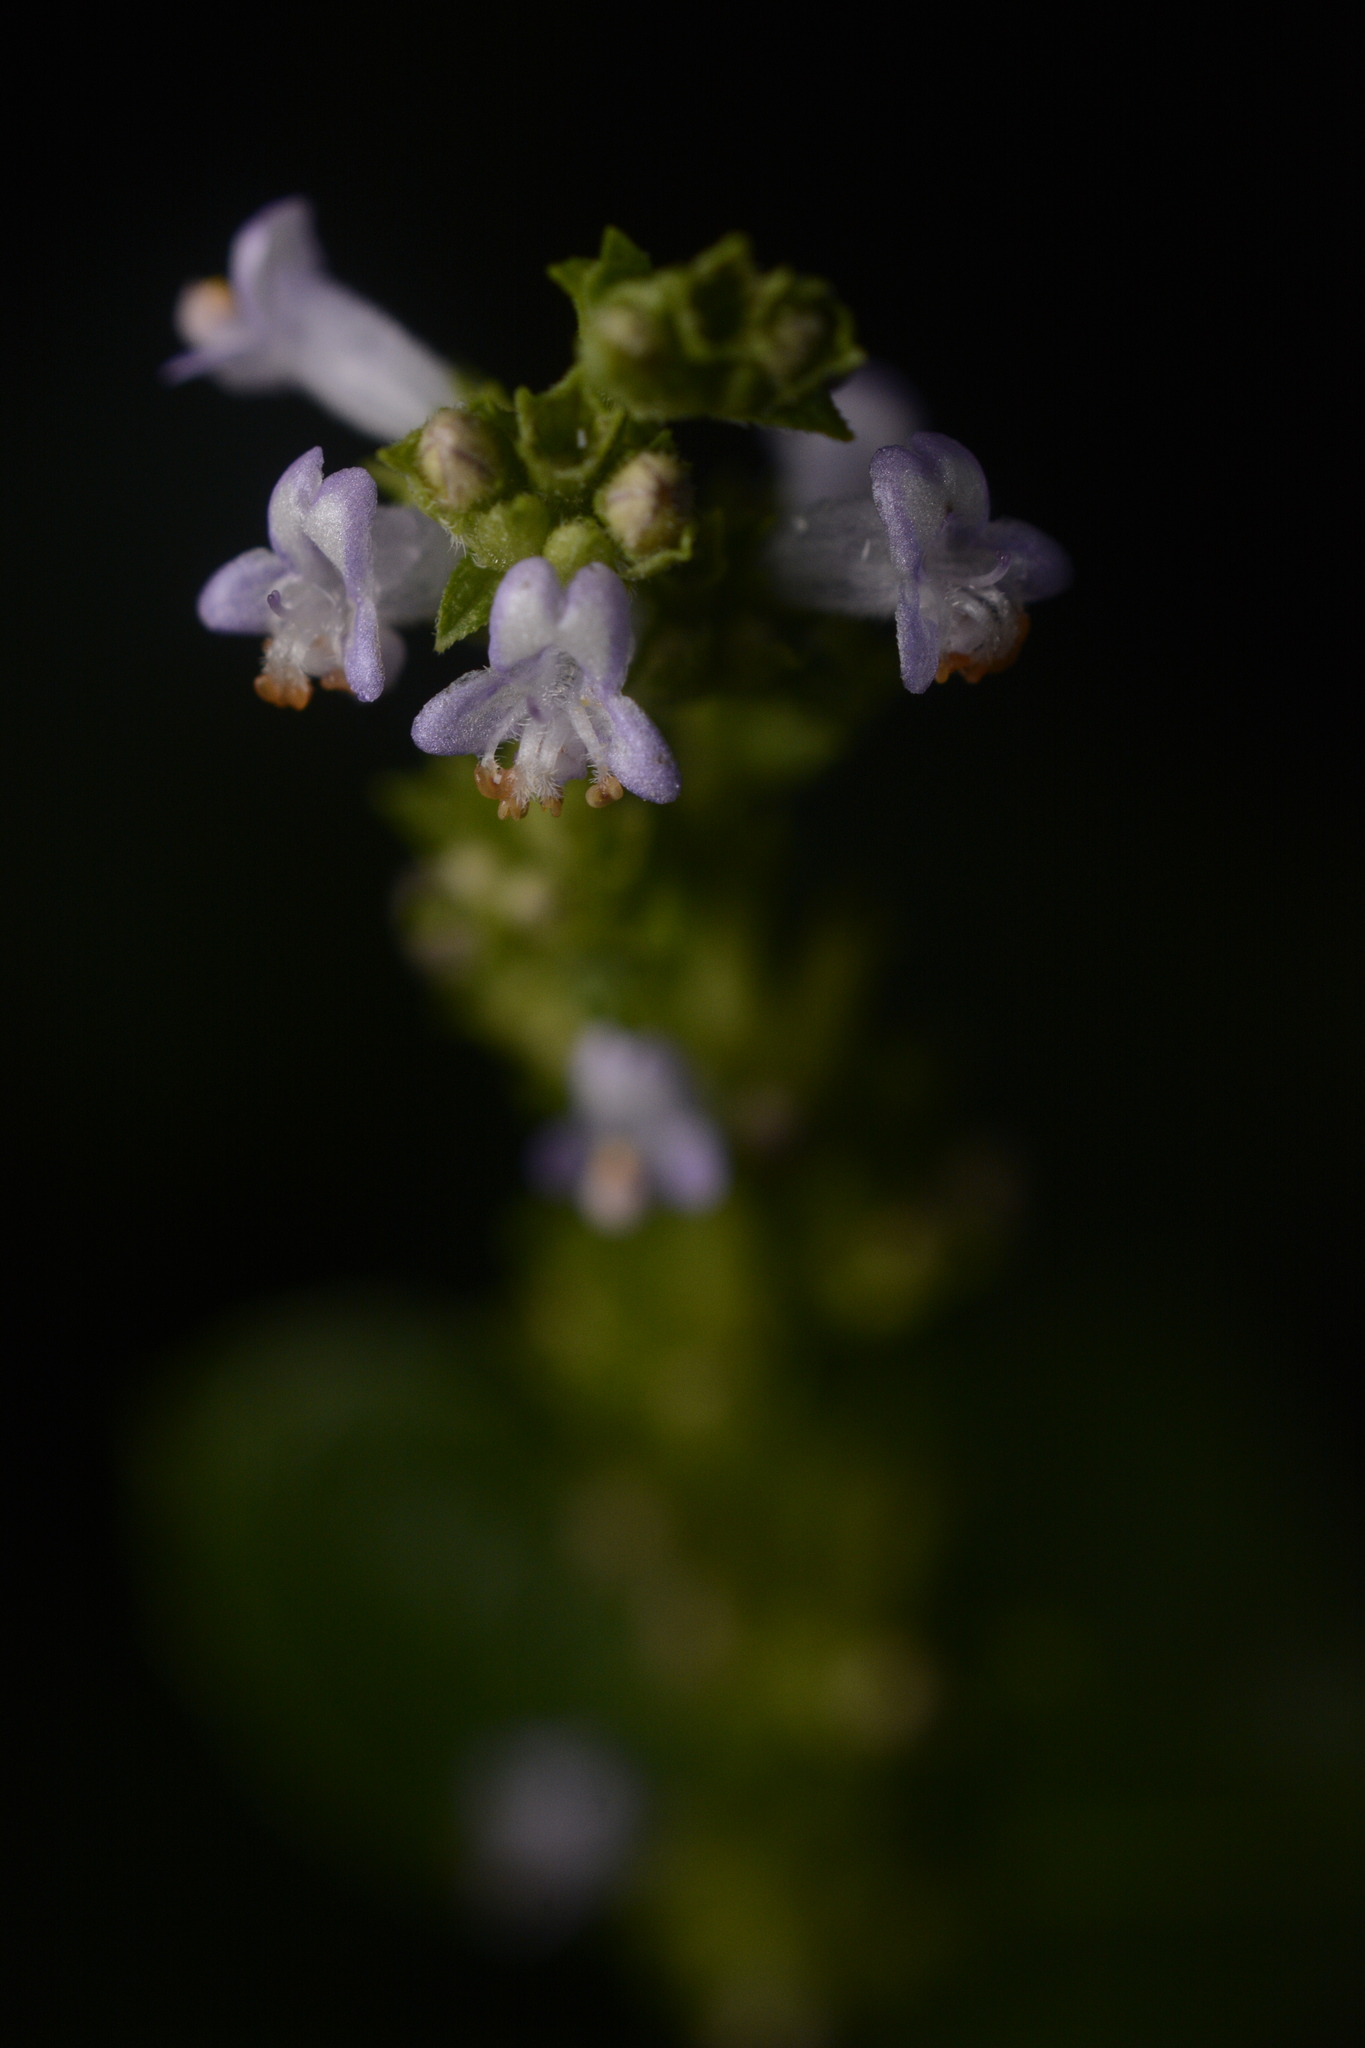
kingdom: Plantae
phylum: Tracheophyta
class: Magnoliopsida
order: Lamiales
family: Lamiaceae
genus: Cantinoa
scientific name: Cantinoa mutabilis
